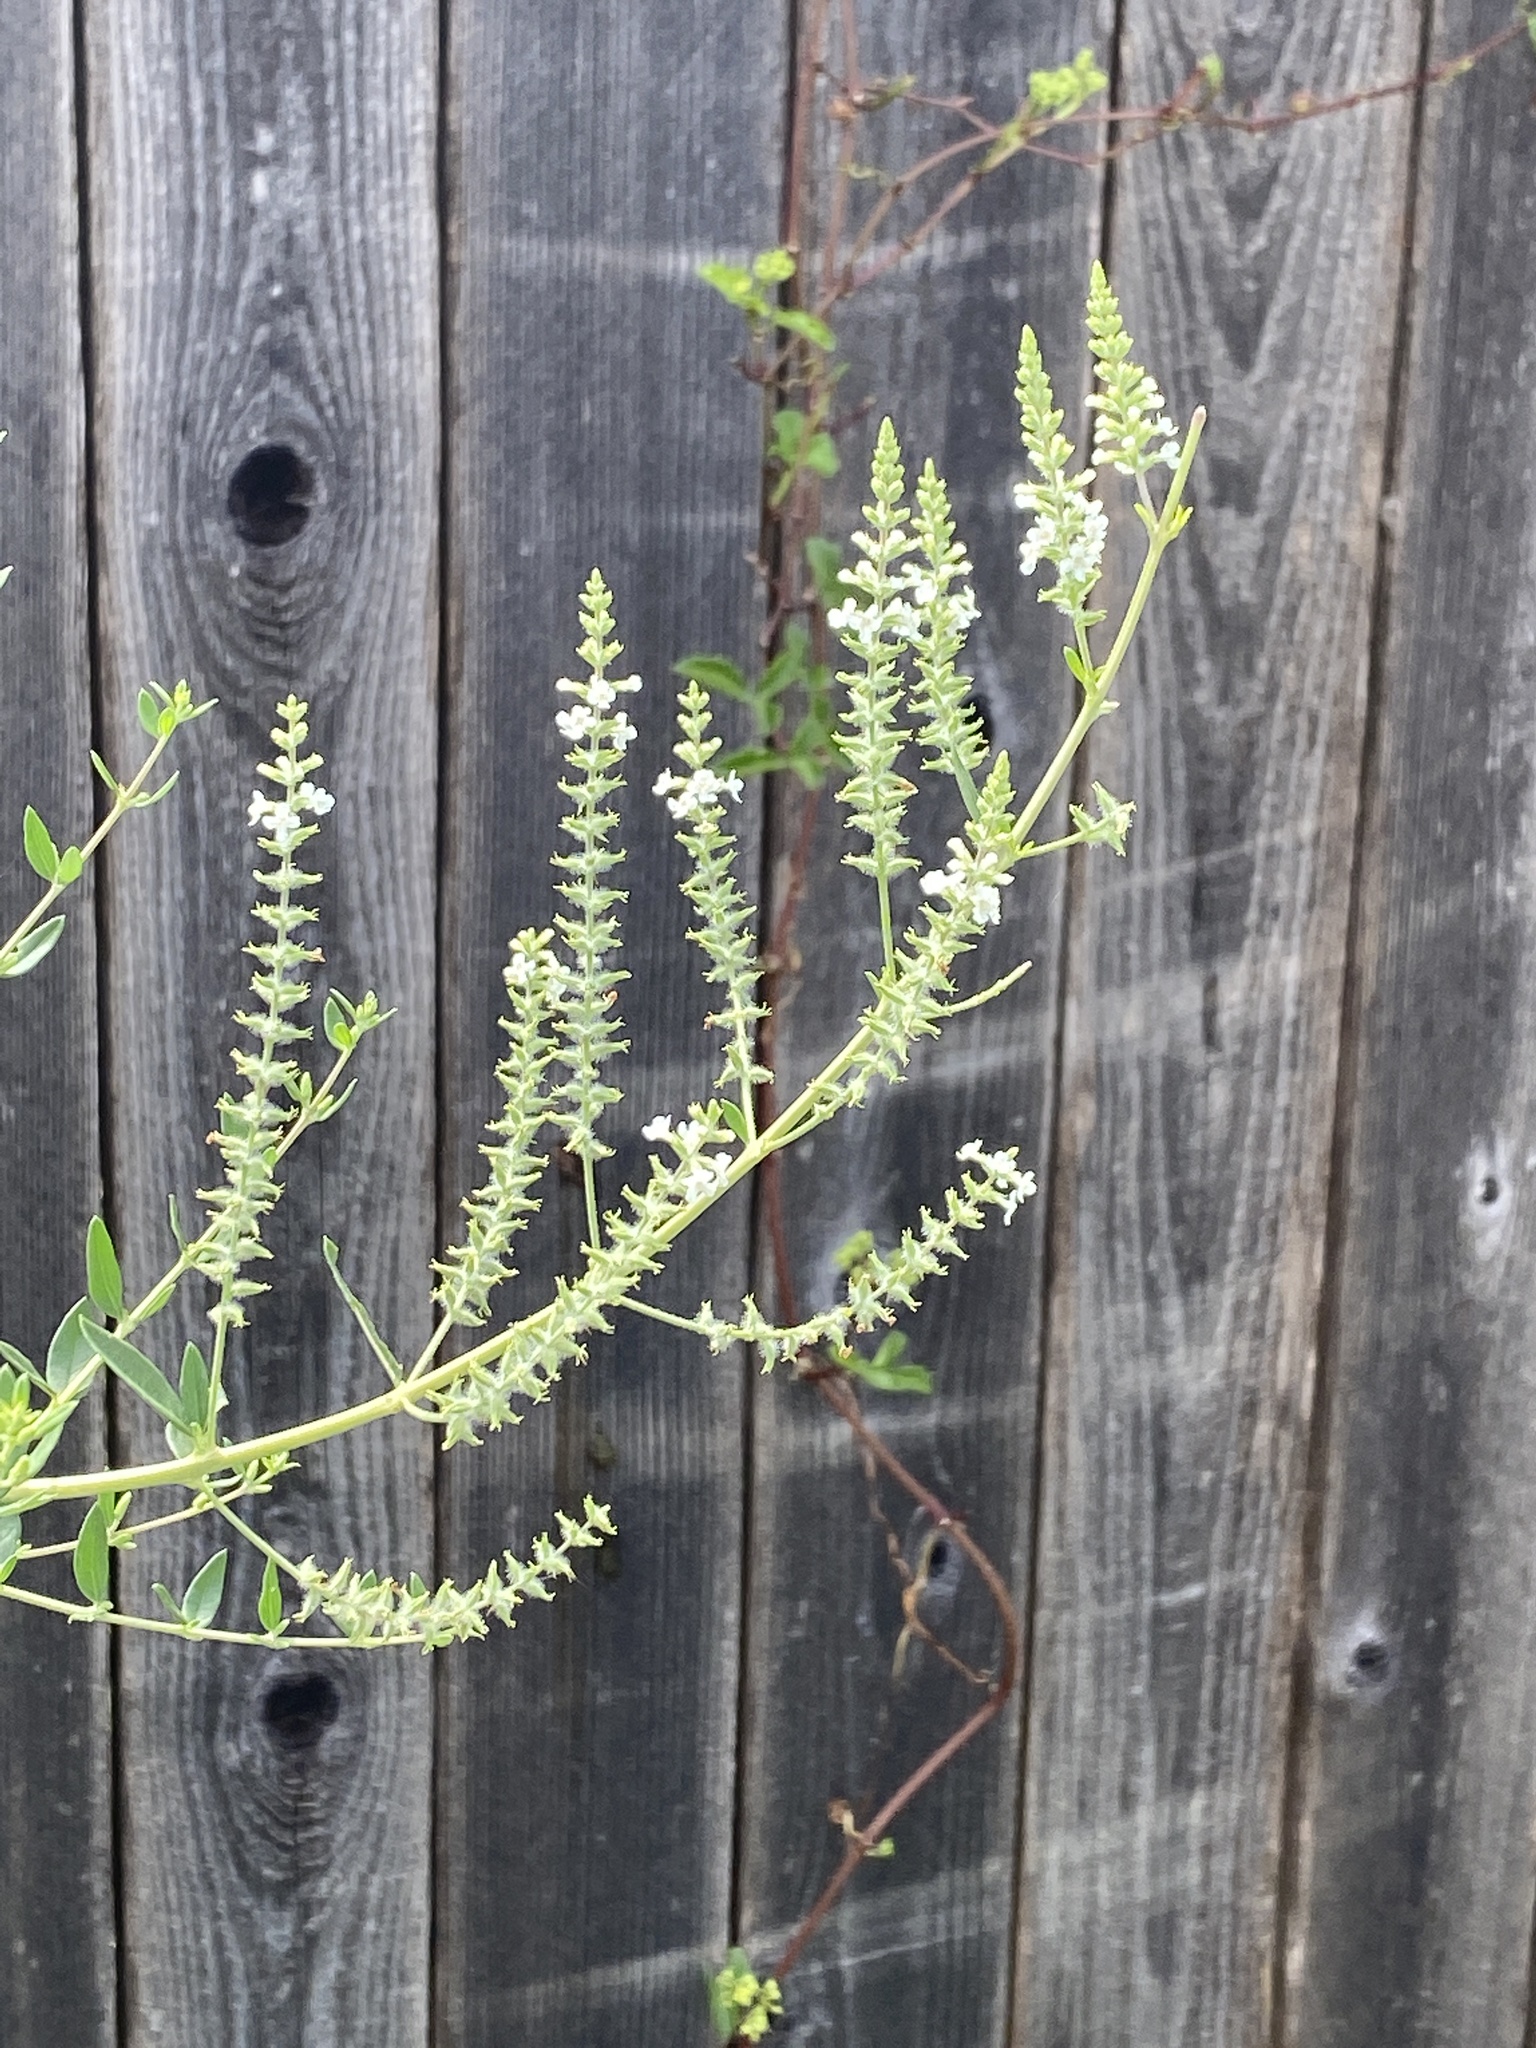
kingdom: Plantae
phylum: Tracheophyta
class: Magnoliopsida
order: Lamiales
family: Verbenaceae
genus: Aloysia
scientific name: Aloysia gratissima
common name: Common bee-brush
